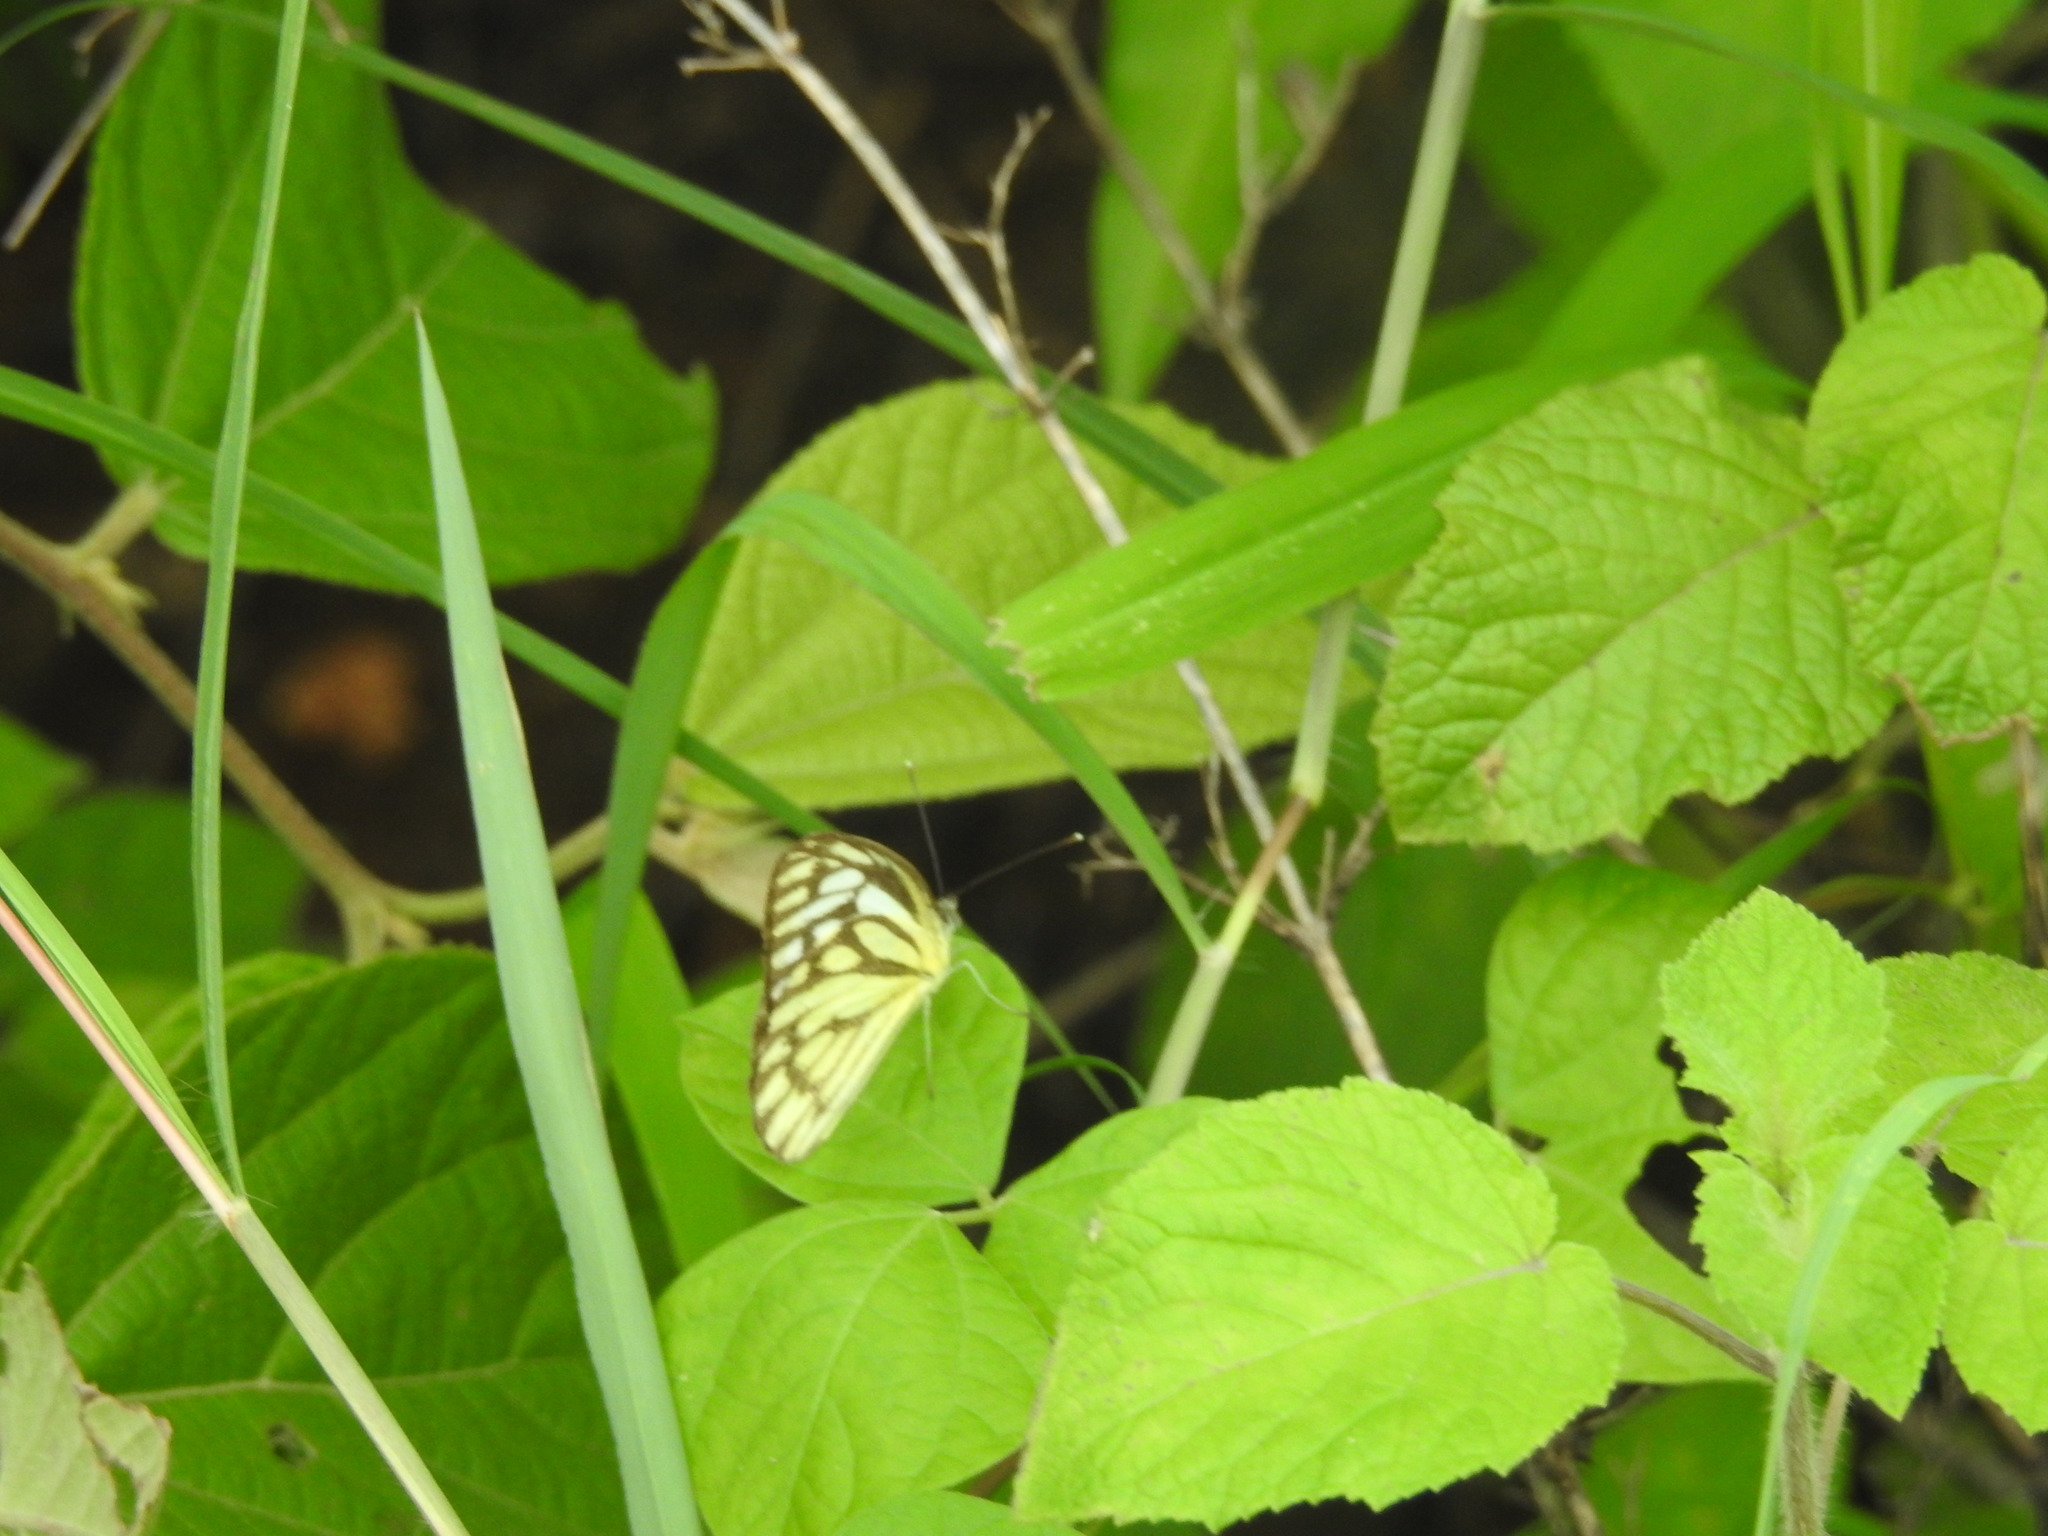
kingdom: Animalia
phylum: Arthropoda
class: Insecta
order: Lepidoptera
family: Pieridae
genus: Cepora
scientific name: Cepora nerissa
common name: Common gull
